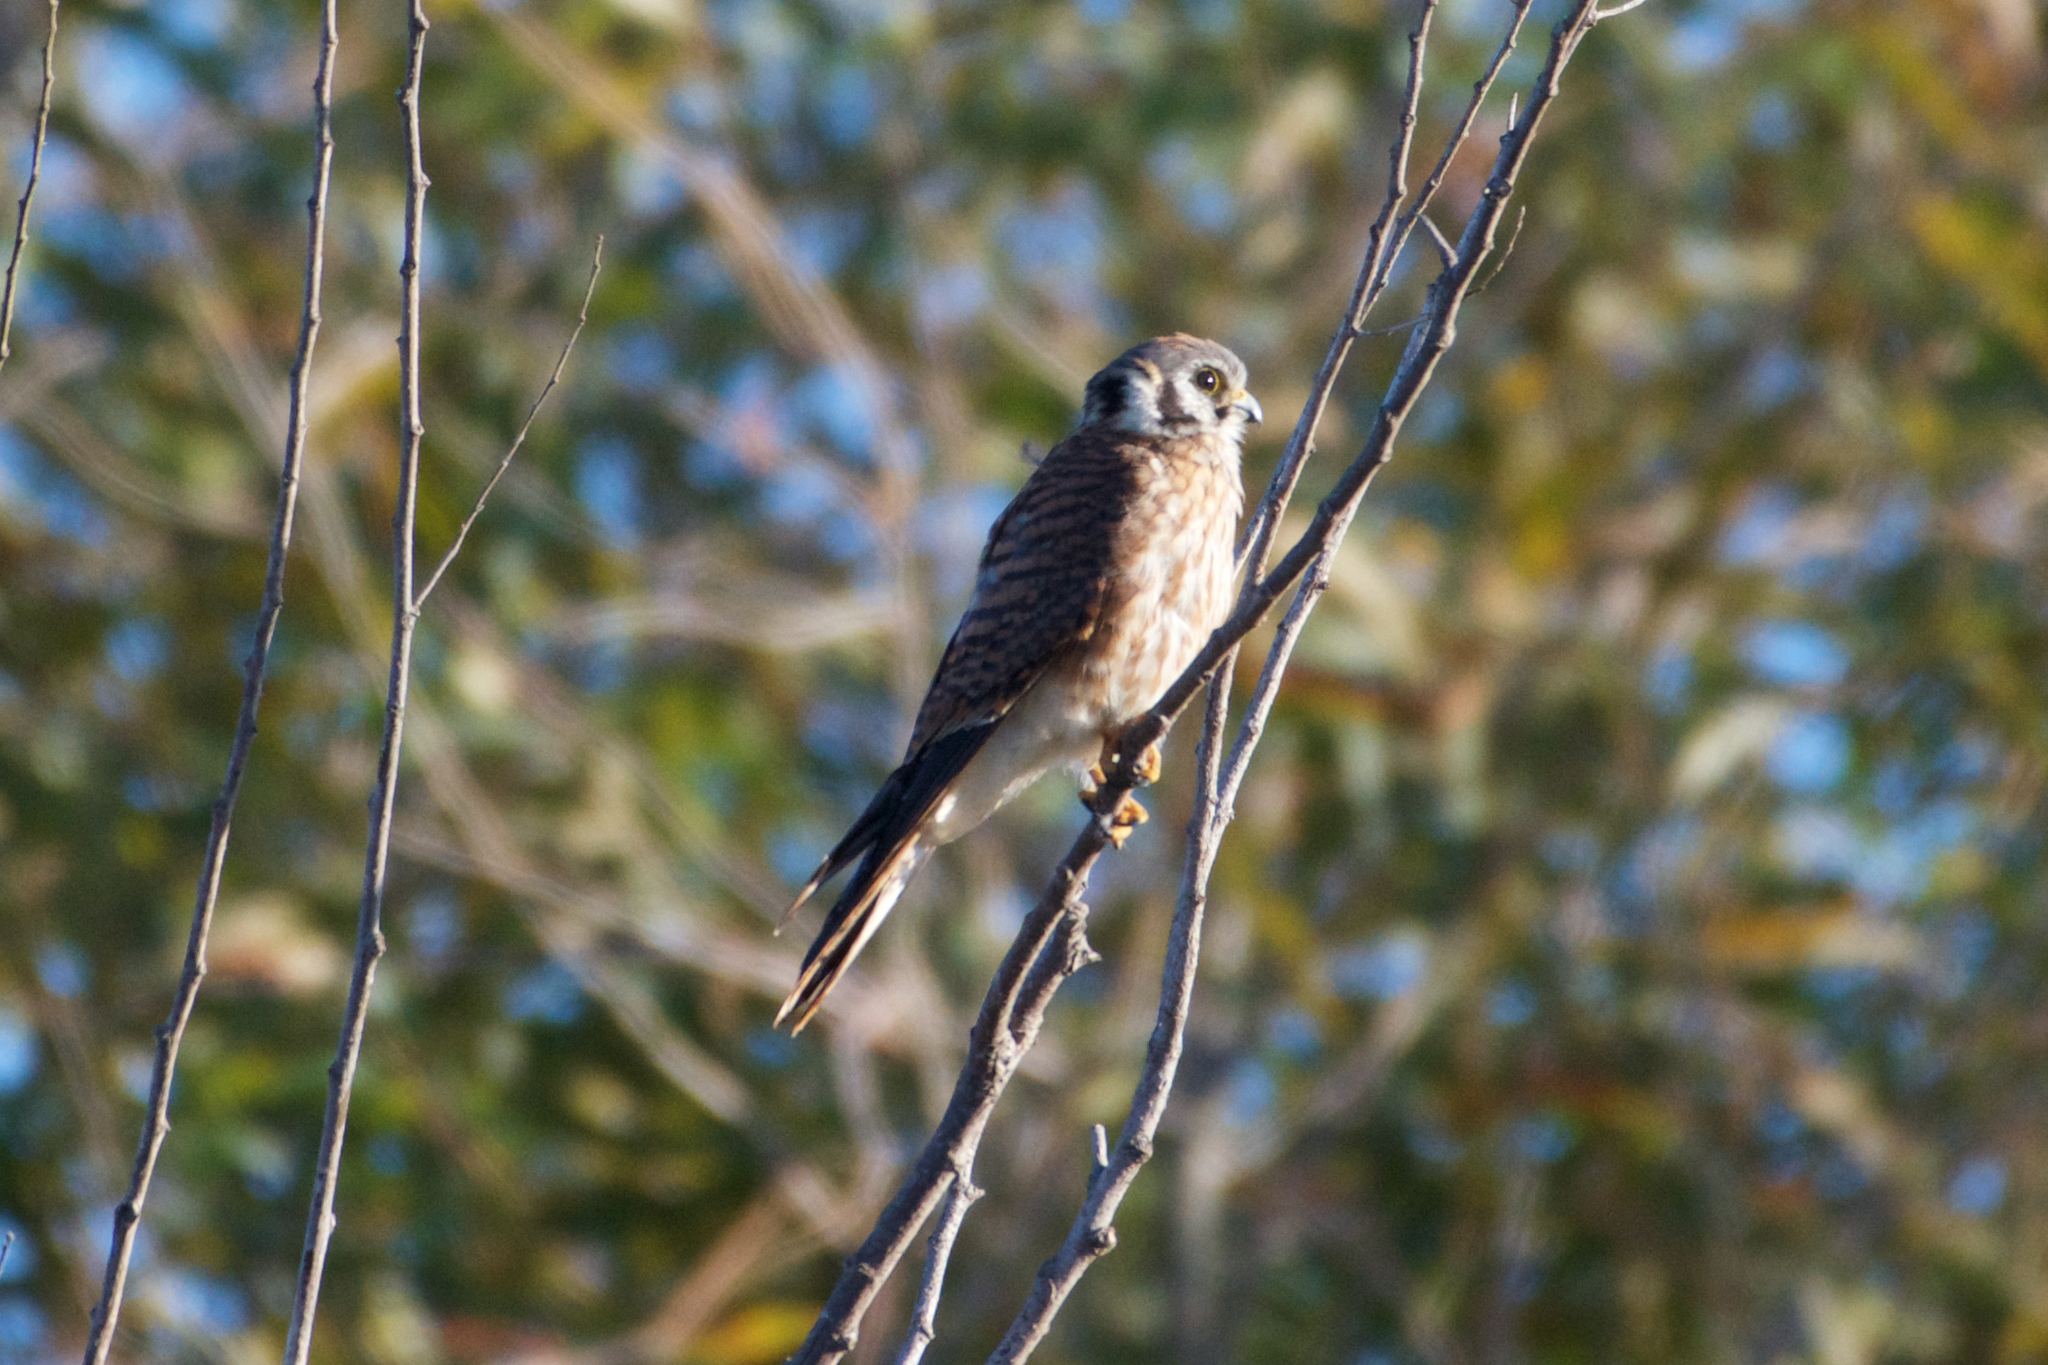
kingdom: Animalia
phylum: Chordata
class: Aves
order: Falconiformes
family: Falconidae
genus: Falco
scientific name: Falco sparverius
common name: American kestrel
